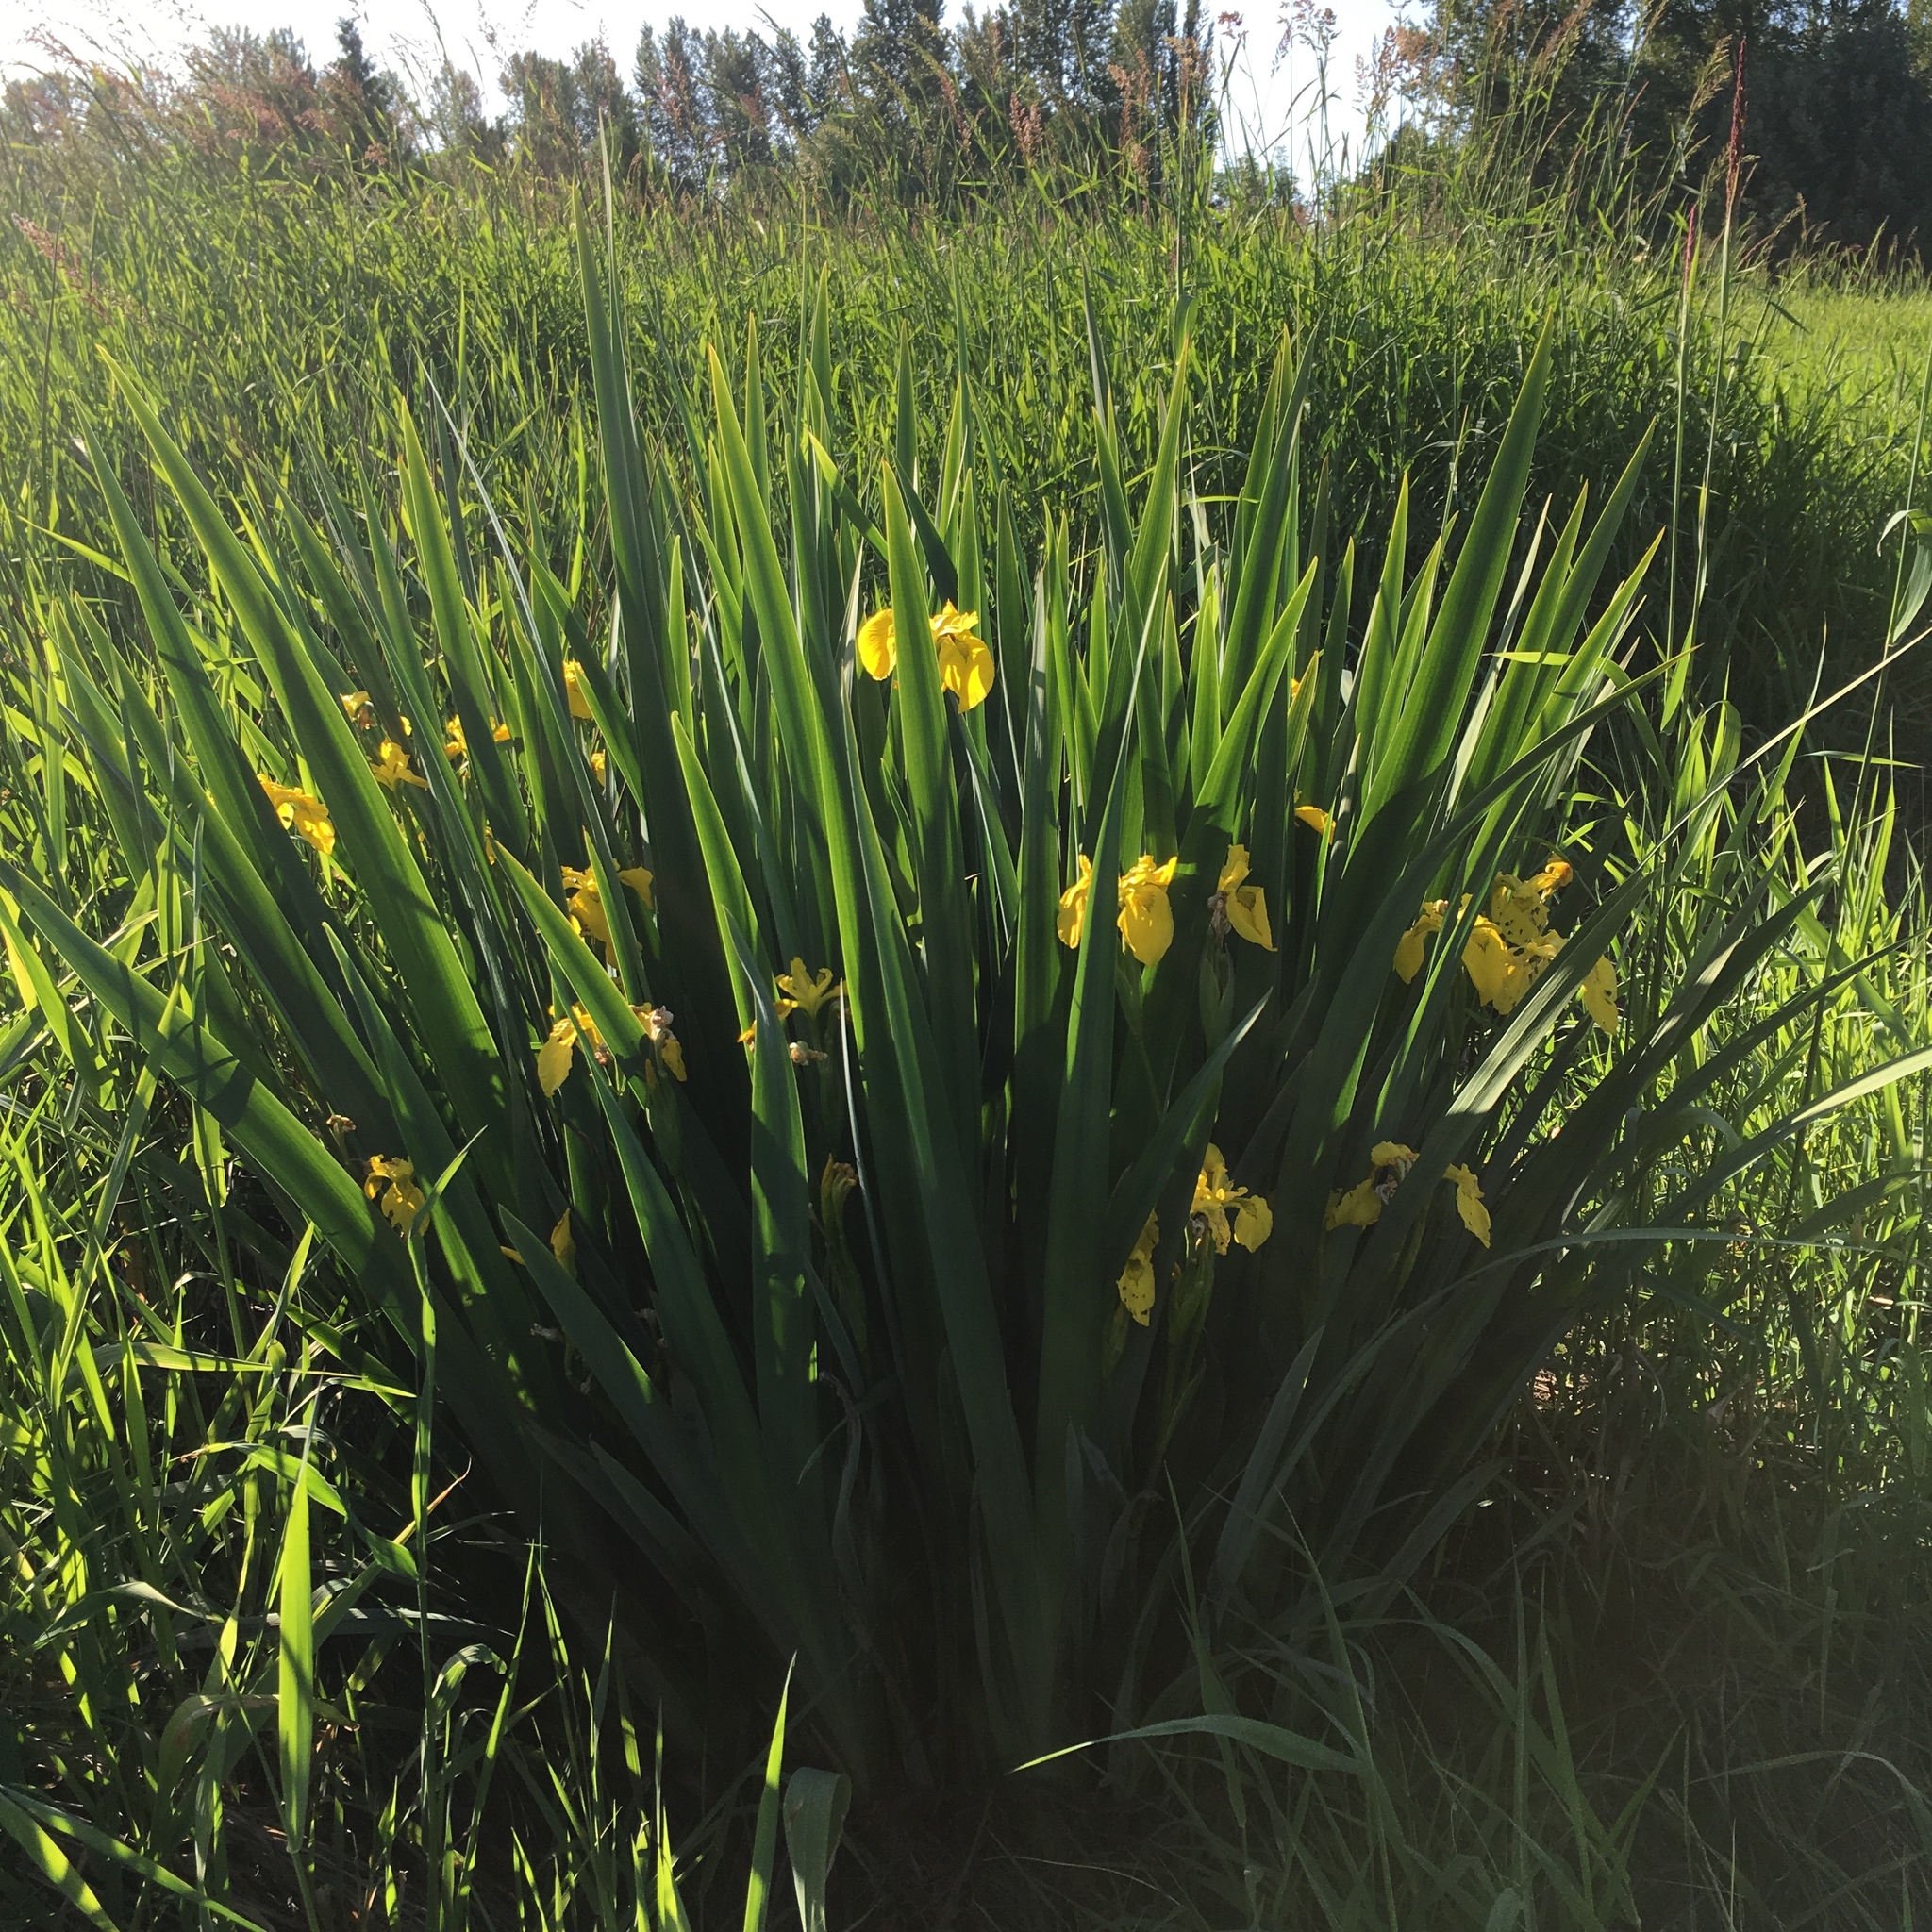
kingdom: Plantae
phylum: Tracheophyta
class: Liliopsida
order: Asparagales
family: Iridaceae
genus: Iris
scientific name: Iris pseudacorus
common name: Yellow flag
